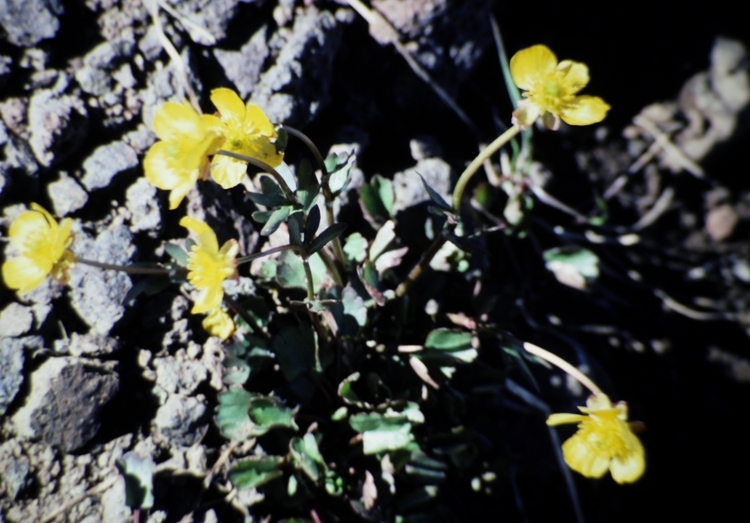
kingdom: Plantae
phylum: Tracheophyta
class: Magnoliopsida
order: Ranunculales
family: Ranunculaceae
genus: Ranunculus
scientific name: Ranunculus eschscholtzii
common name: Eschscholtz's buttercup
